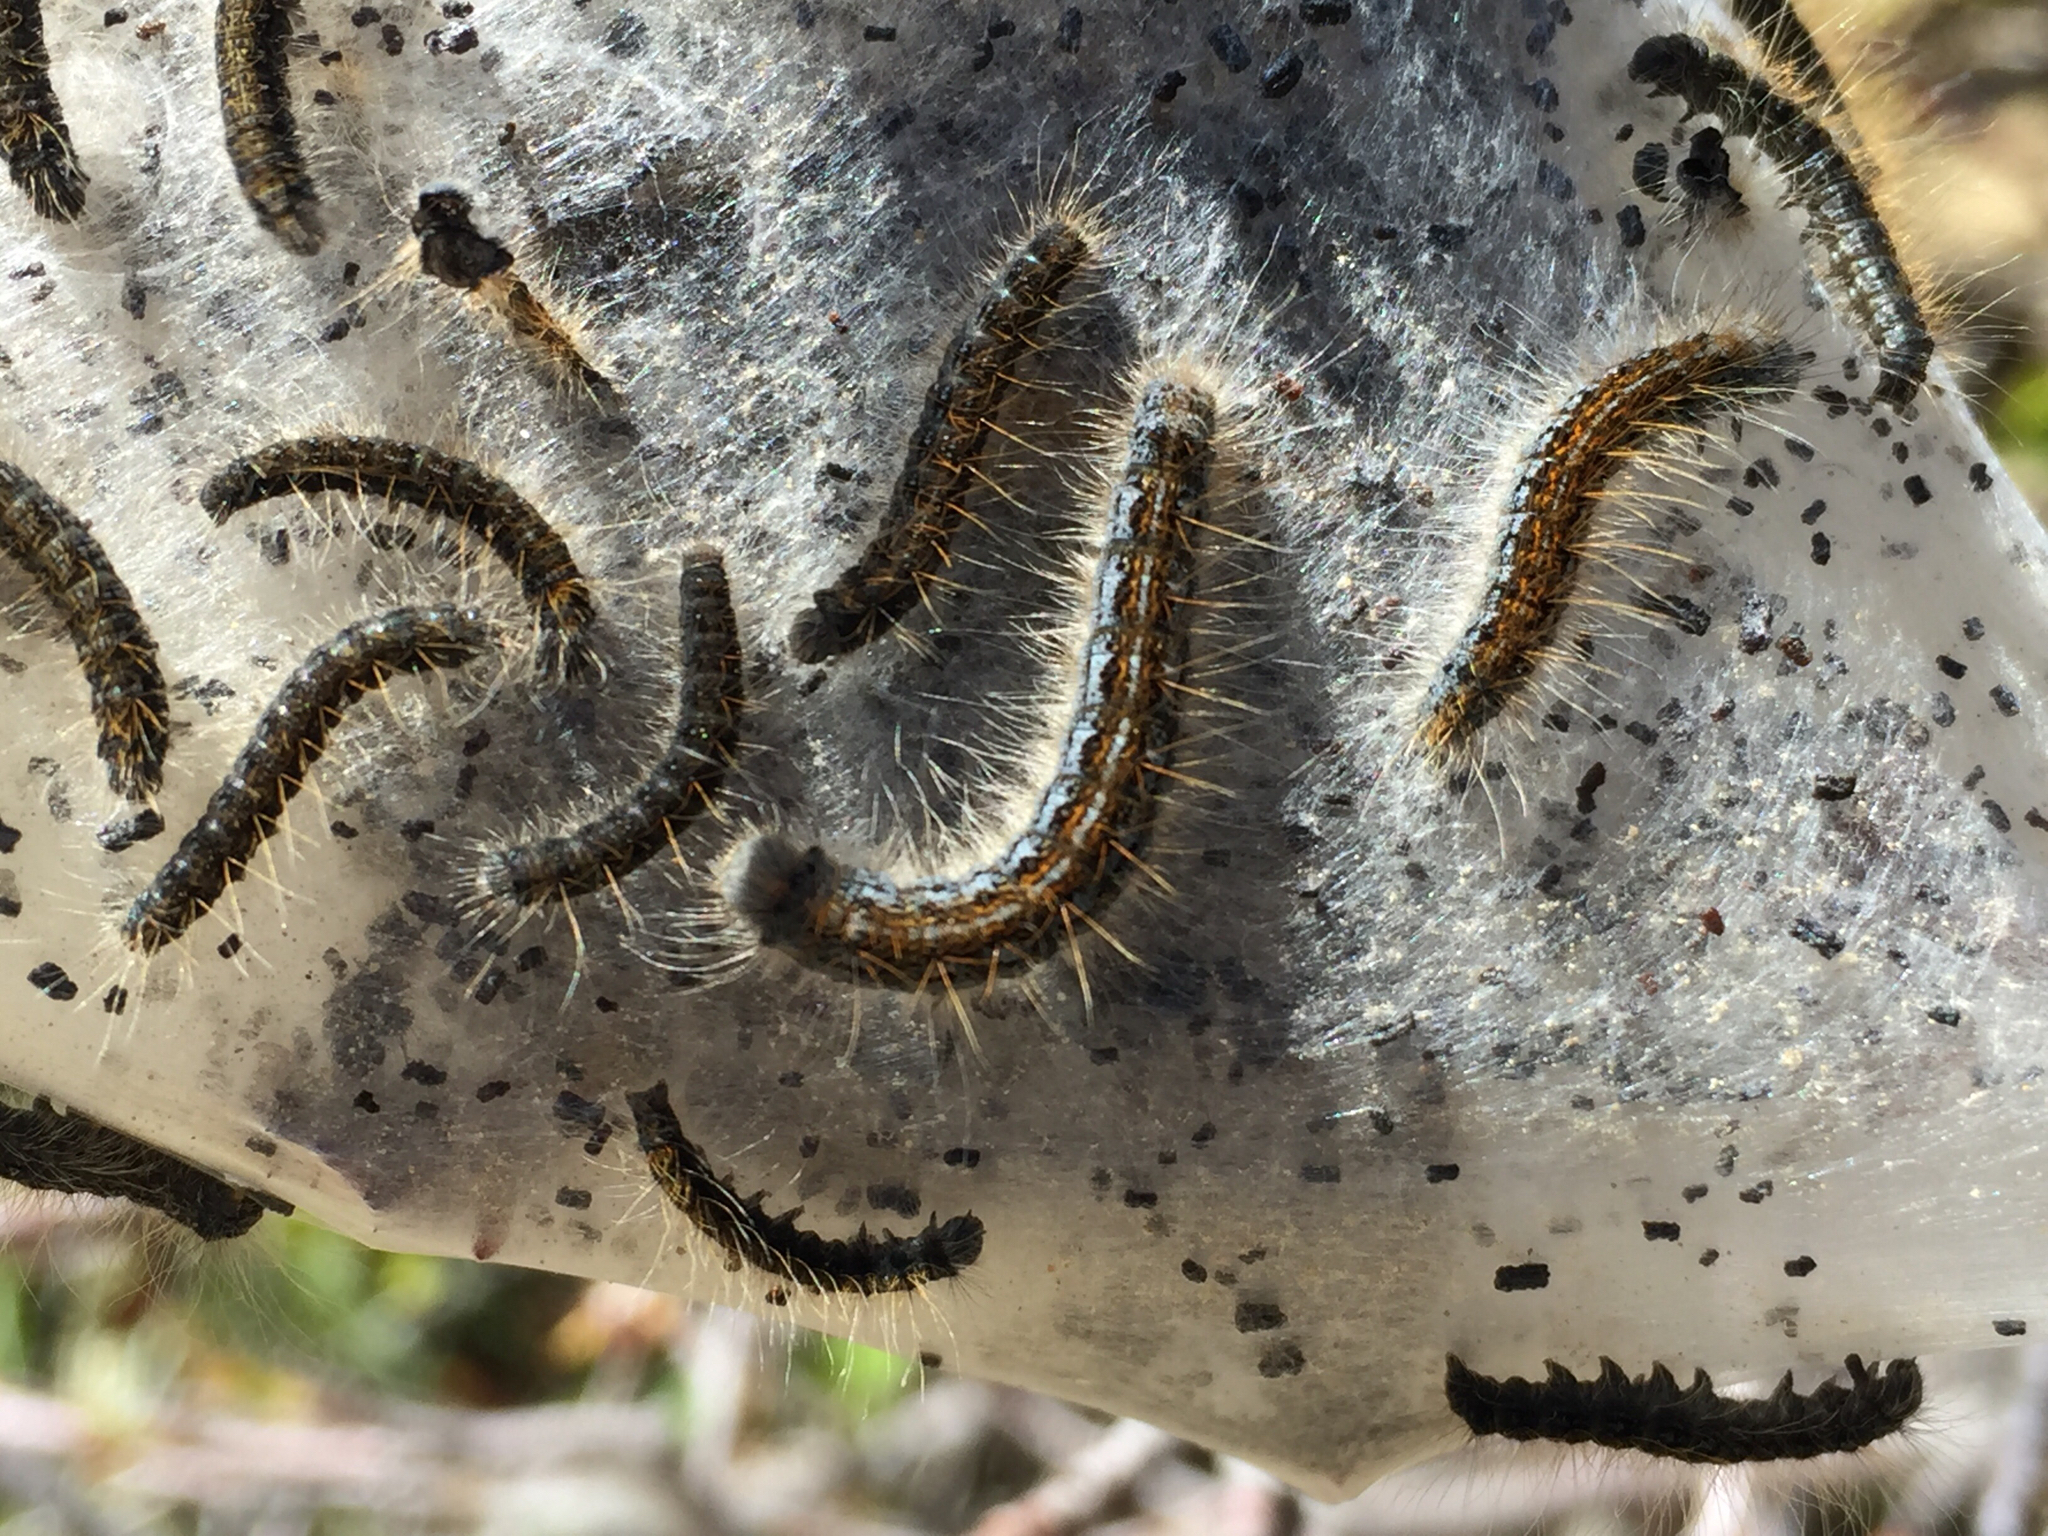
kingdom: Animalia
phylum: Arthropoda
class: Insecta
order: Lepidoptera
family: Lasiocampidae
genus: Malacosoma
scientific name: Malacosoma californica
